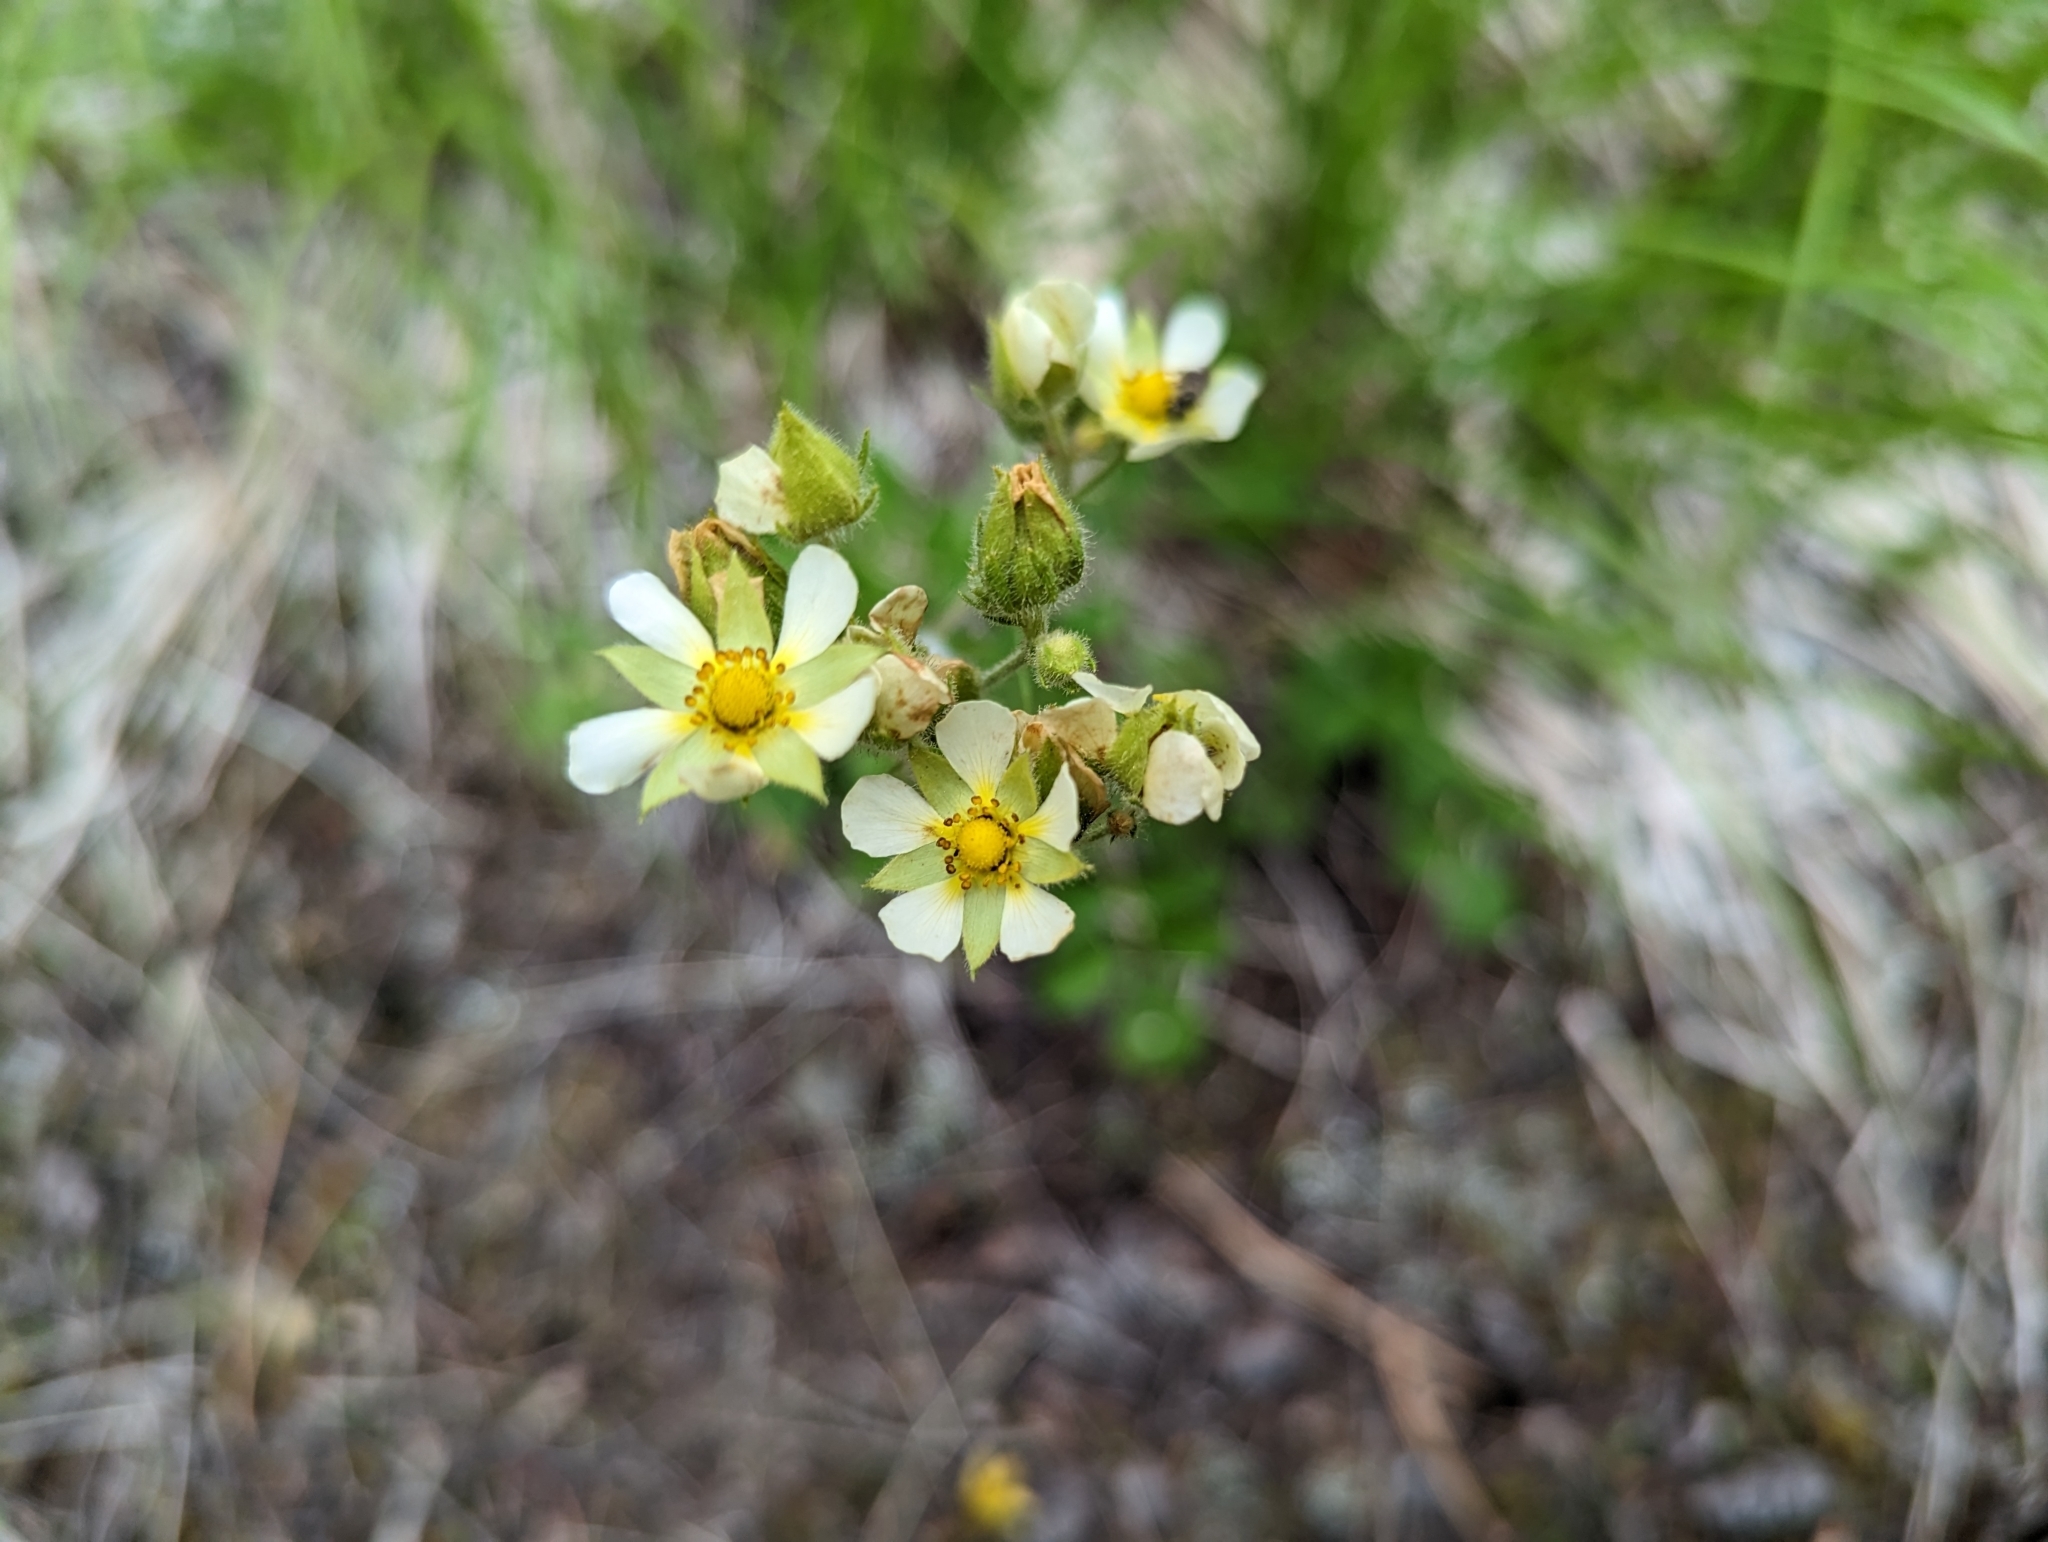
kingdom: Plantae
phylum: Tracheophyta
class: Magnoliopsida
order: Rosales
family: Rosaceae
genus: Drymocallis
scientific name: Drymocallis convallaria
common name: Cream cinquefoil
